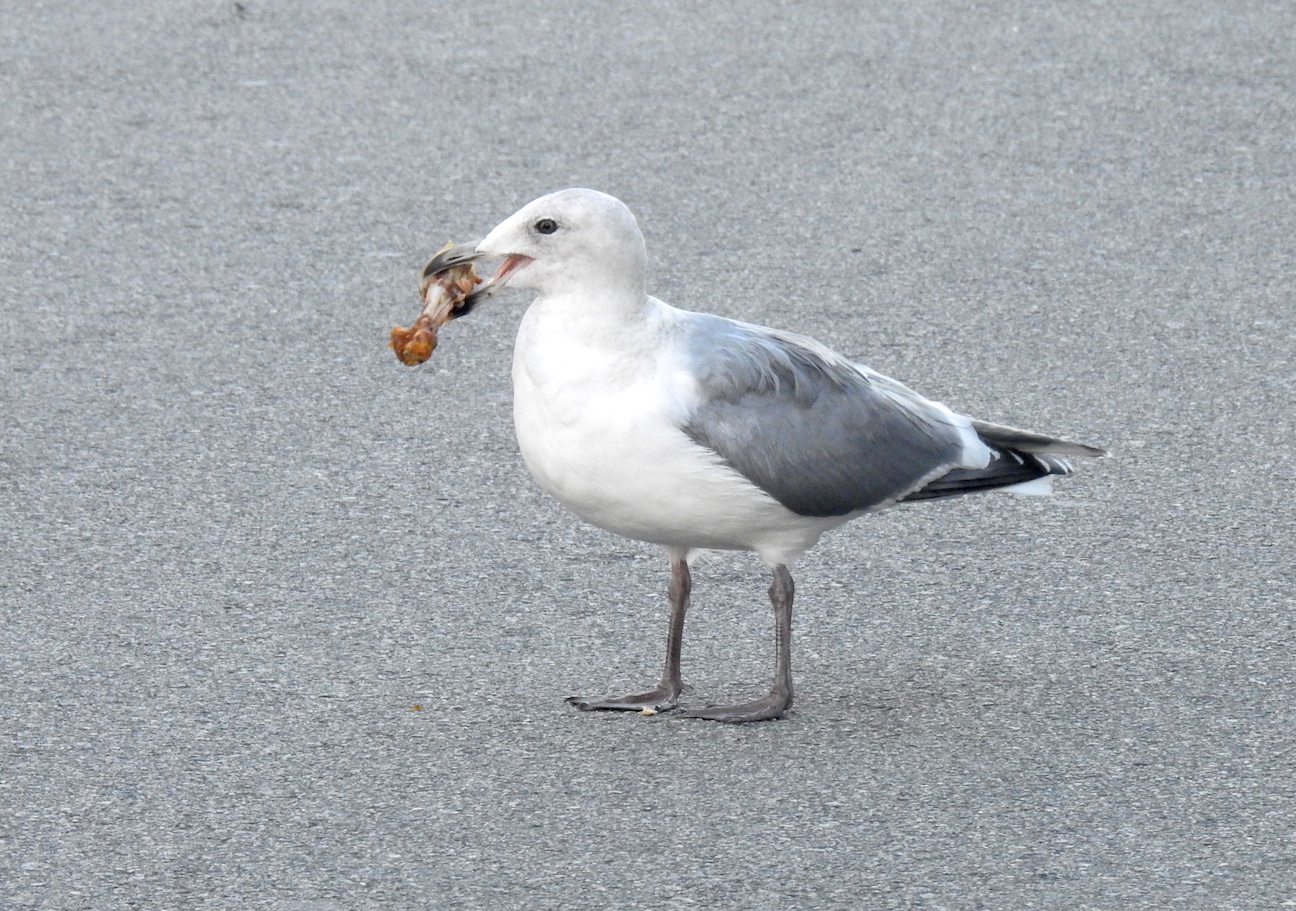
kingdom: Animalia
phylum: Chordata
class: Aves
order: Charadriiformes
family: Laridae
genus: Larus
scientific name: Larus
